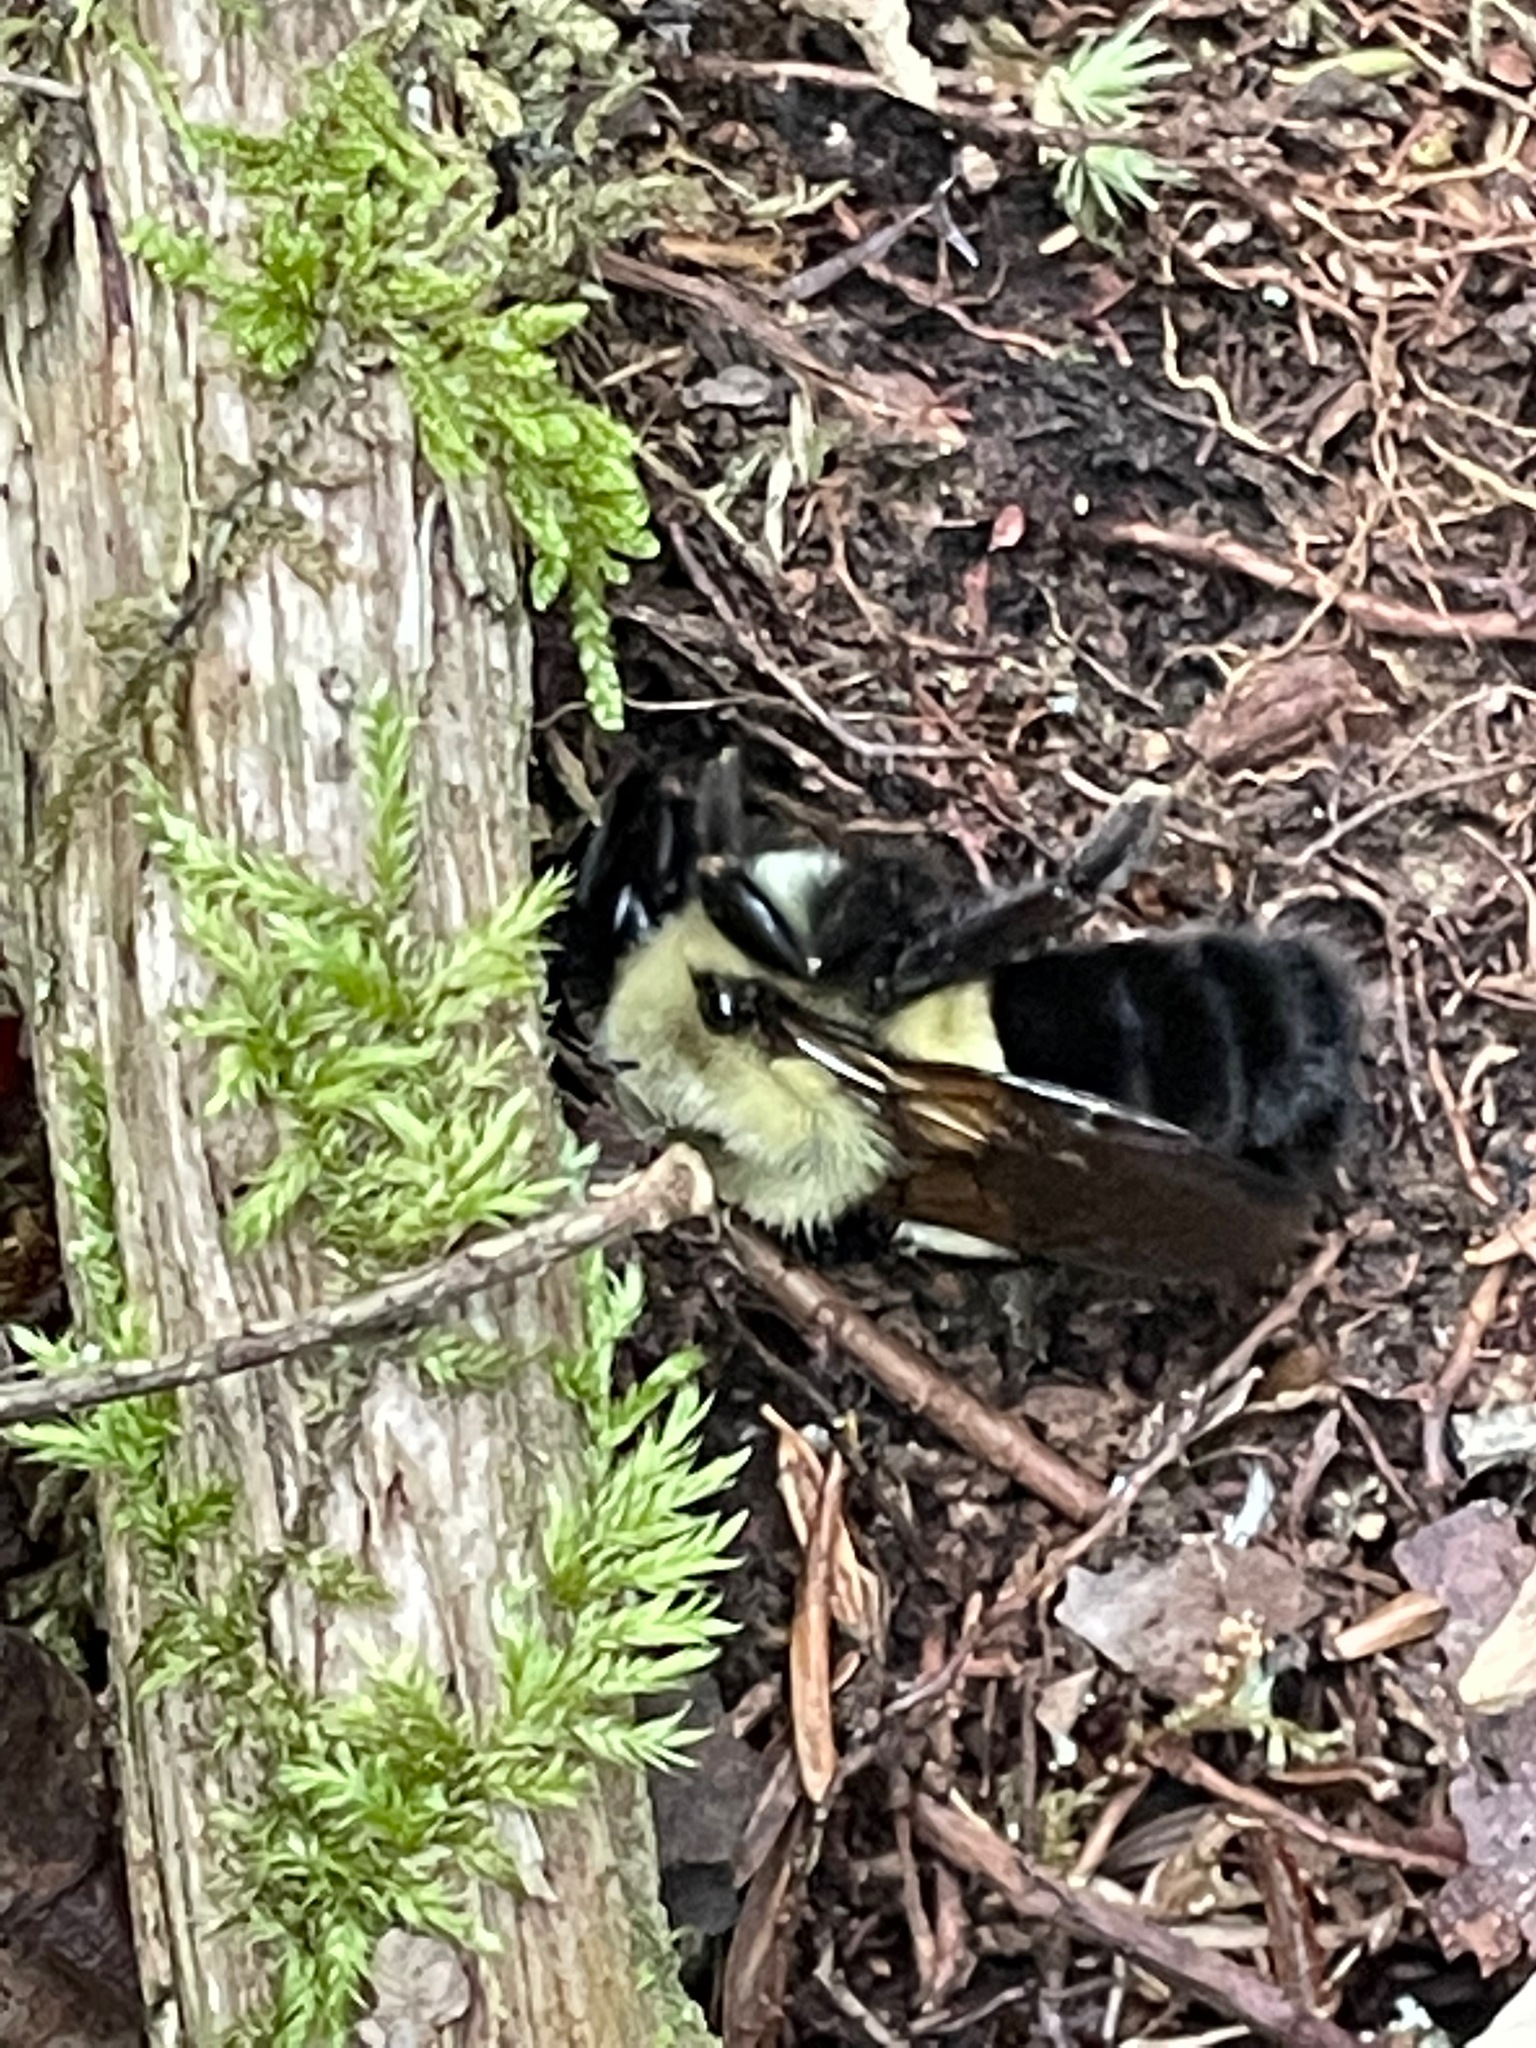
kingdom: Animalia
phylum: Arthropoda
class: Insecta
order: Hymenoptera
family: Apidae
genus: Bombus
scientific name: Bombus impatiens
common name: Common eastern bumble bee
